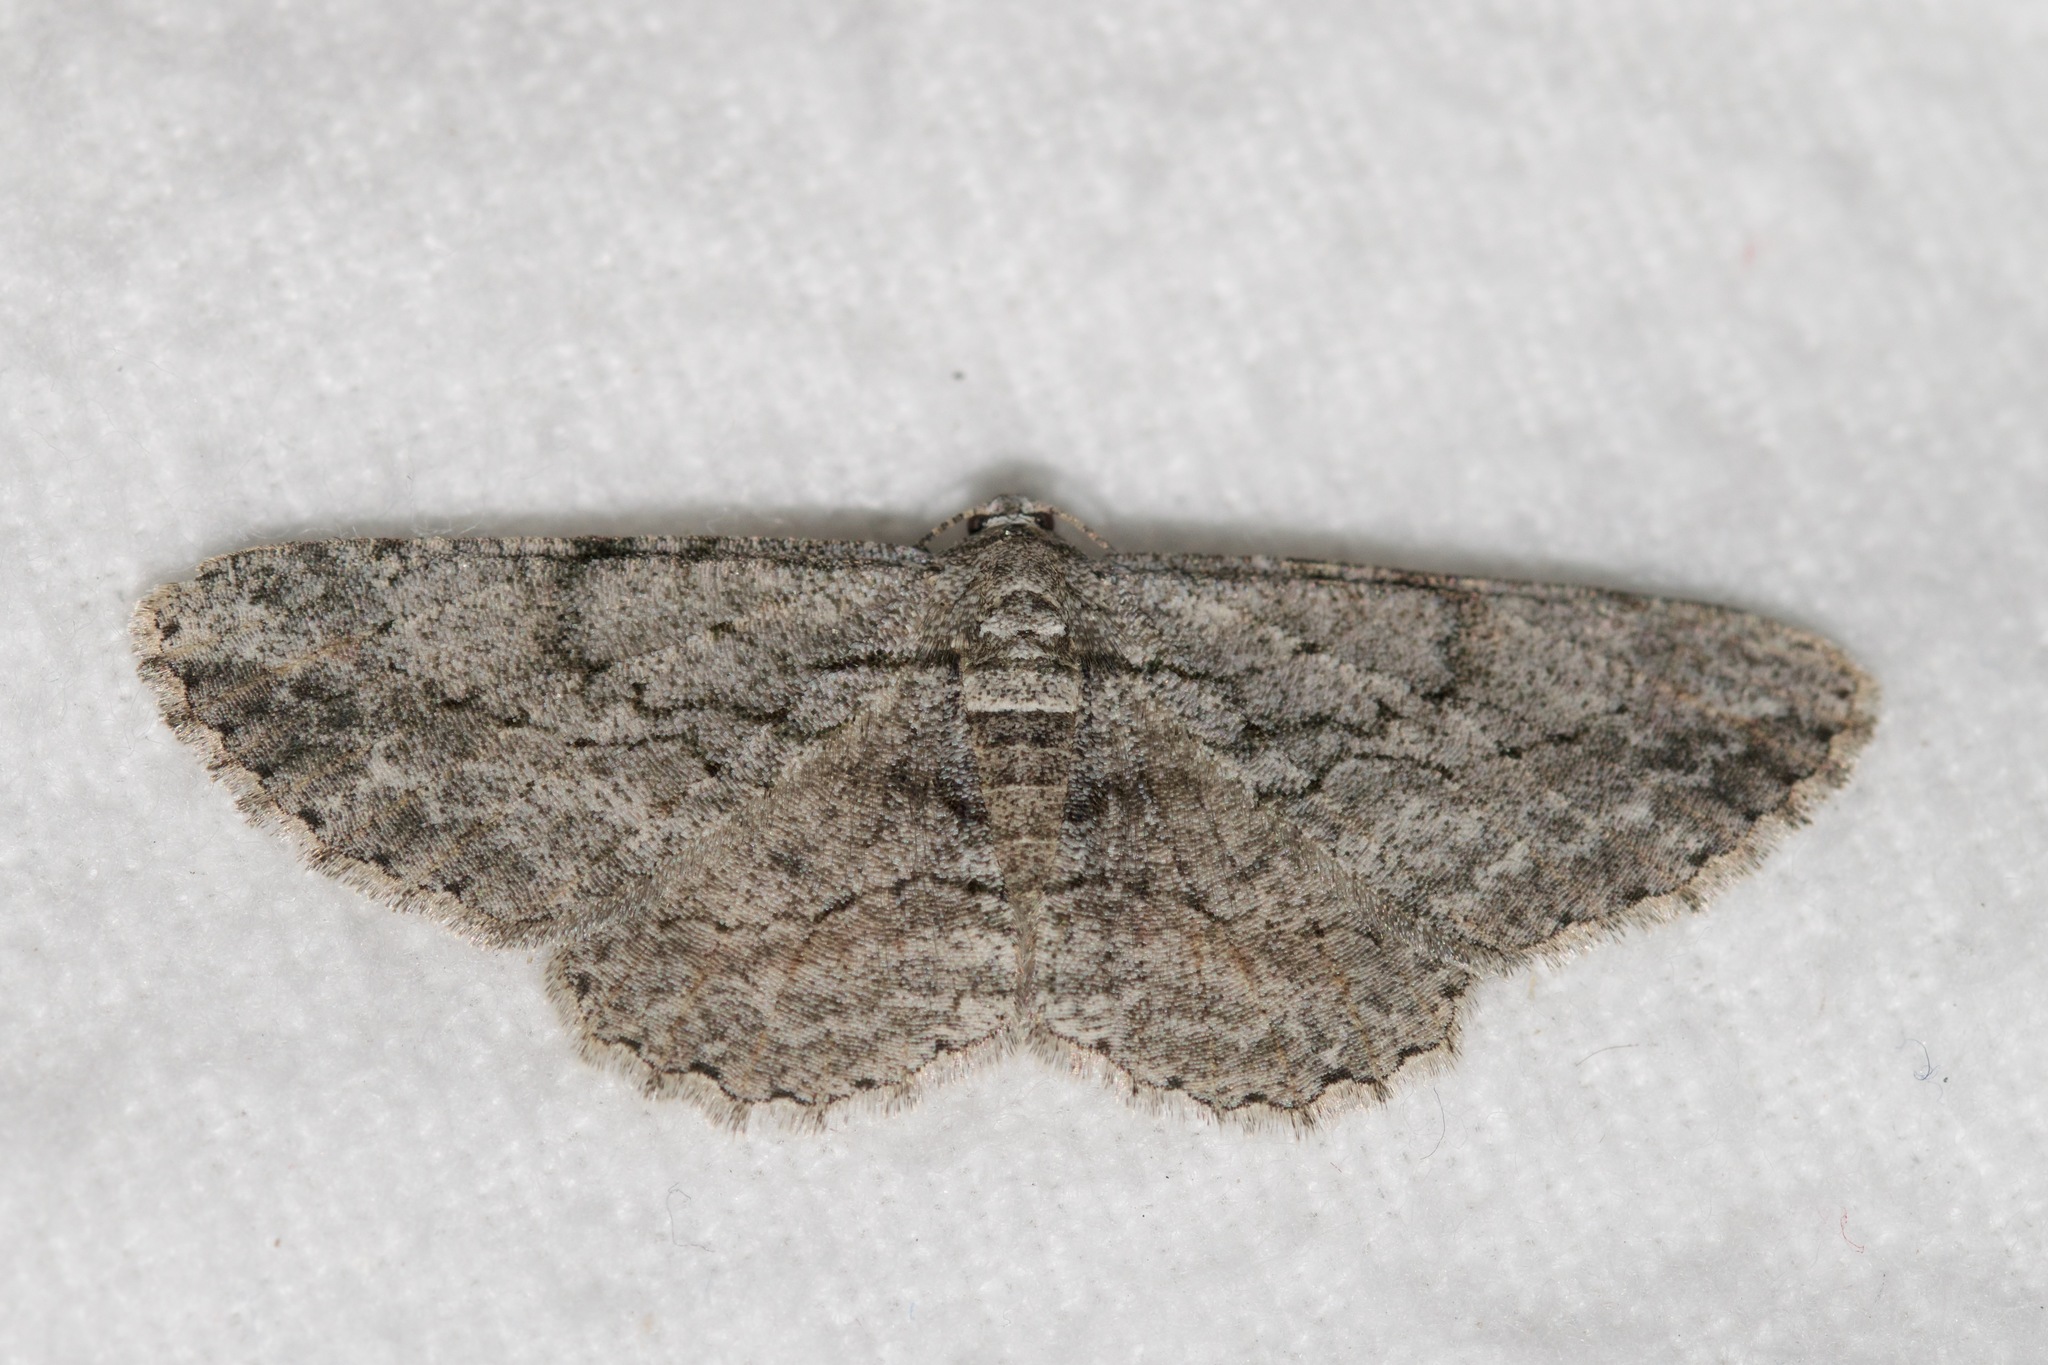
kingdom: Animalia
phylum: Arthropoda
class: Insecta
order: Lepidoptera
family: Geometridae
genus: Anavitrinella
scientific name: Anavitrinella pampinaria
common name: Common gray
